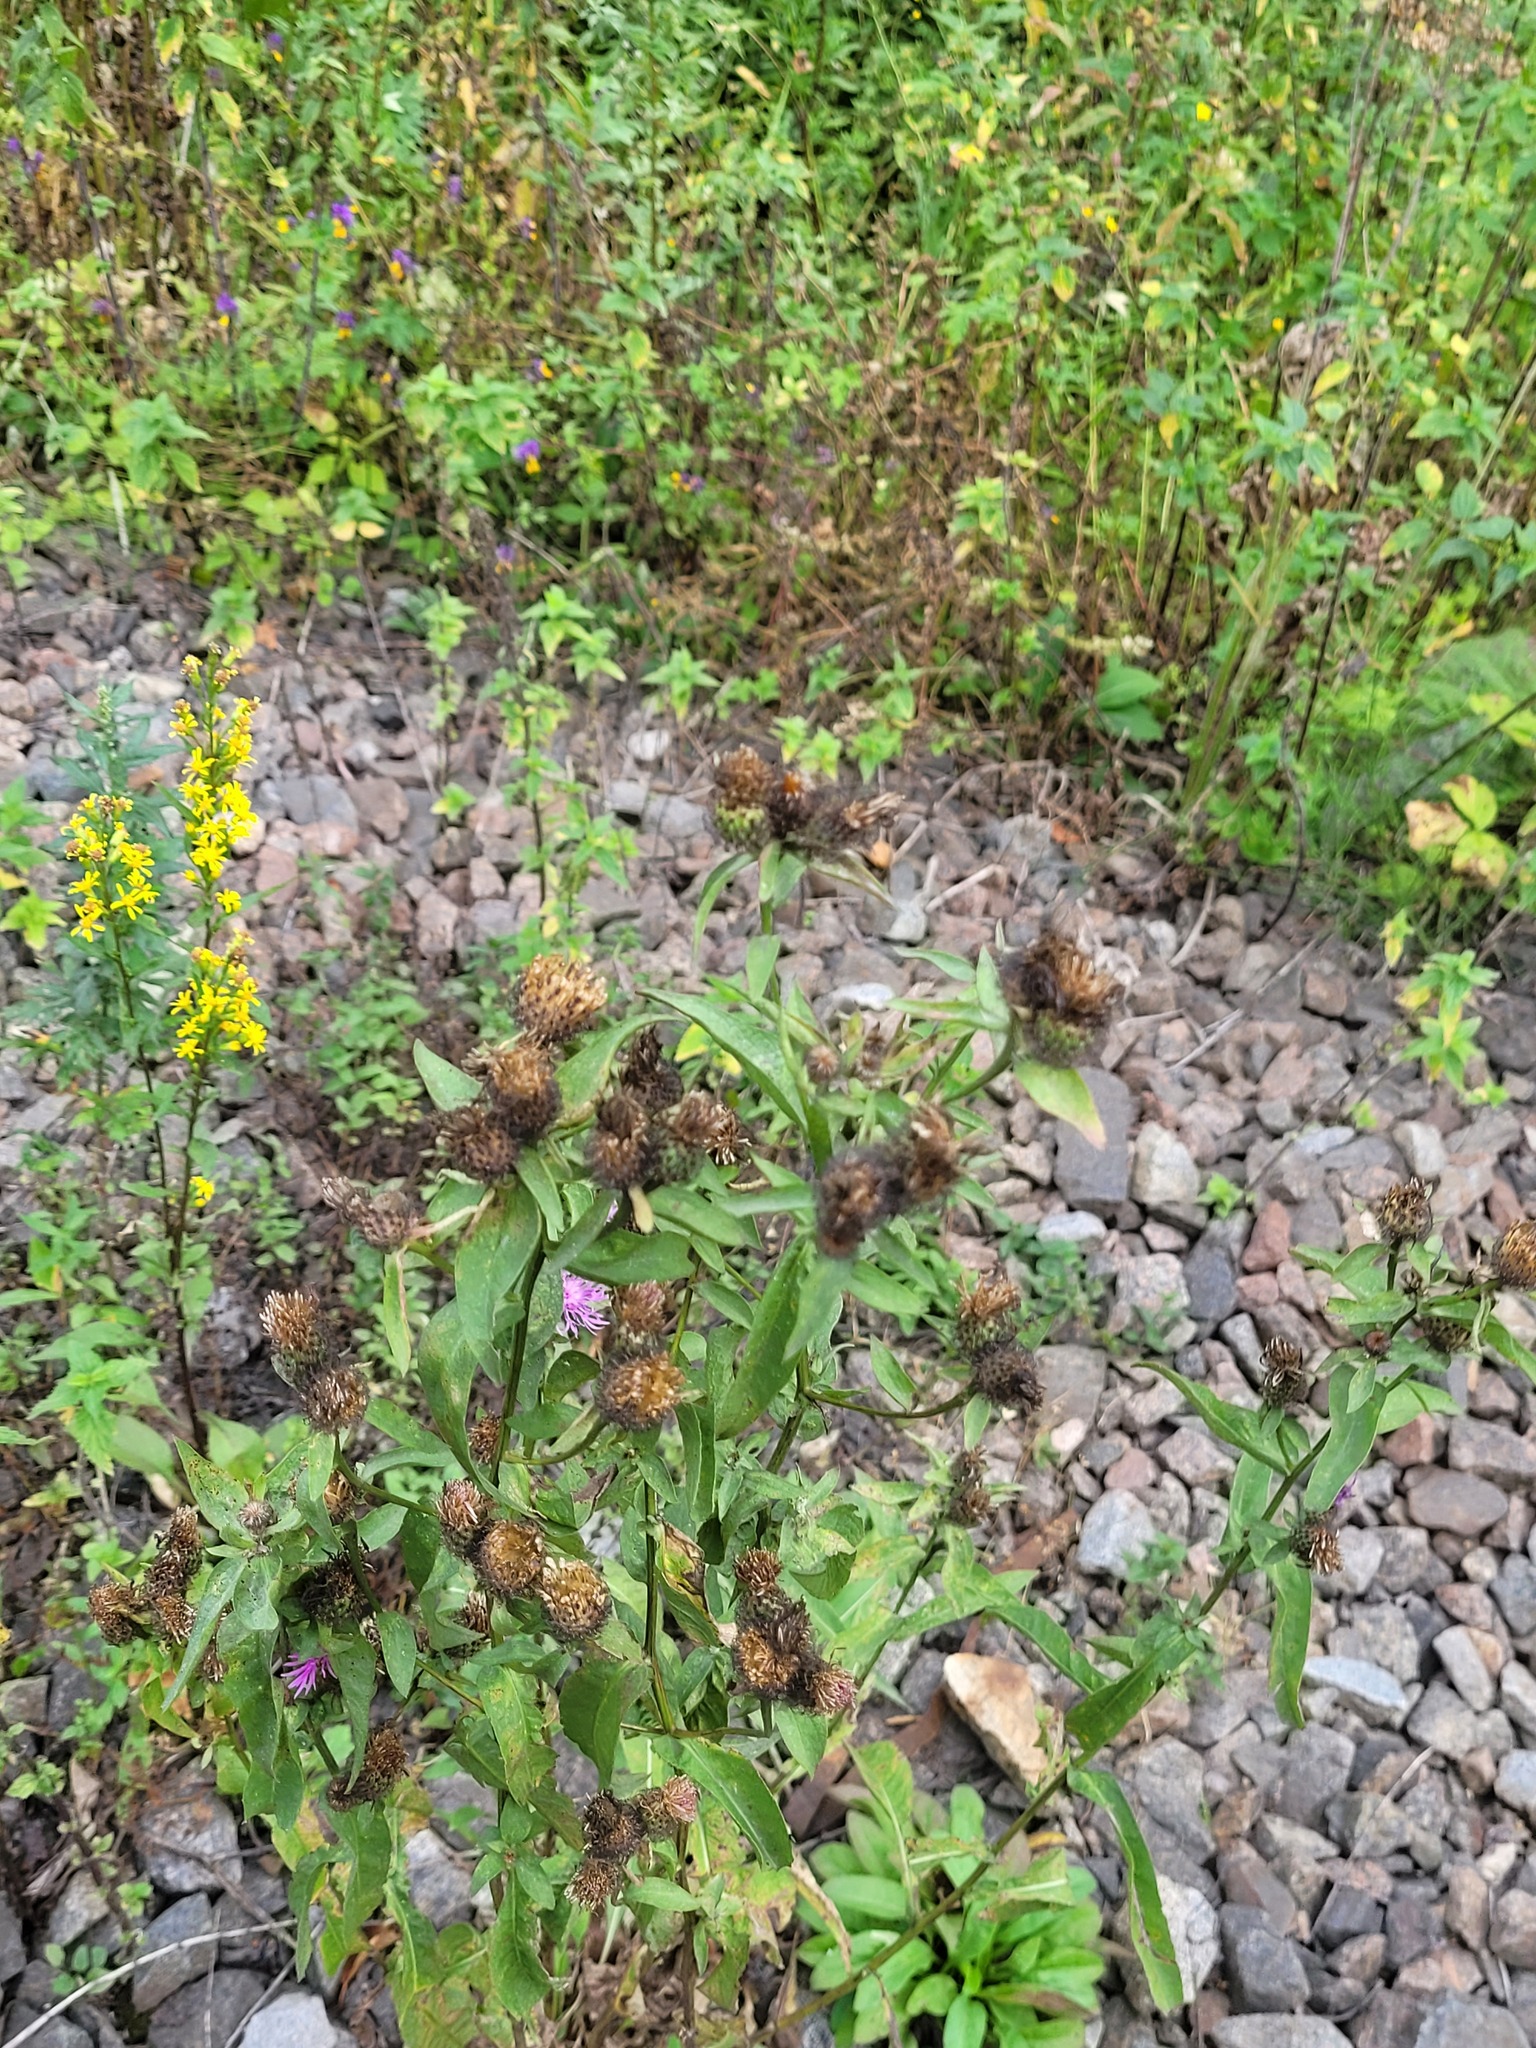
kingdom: Plantae
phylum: Tracheophyta
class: Magnoliopsida
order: Asterales
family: Asteraceae
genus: Centaurea
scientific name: Centaurea pseudophrygia
